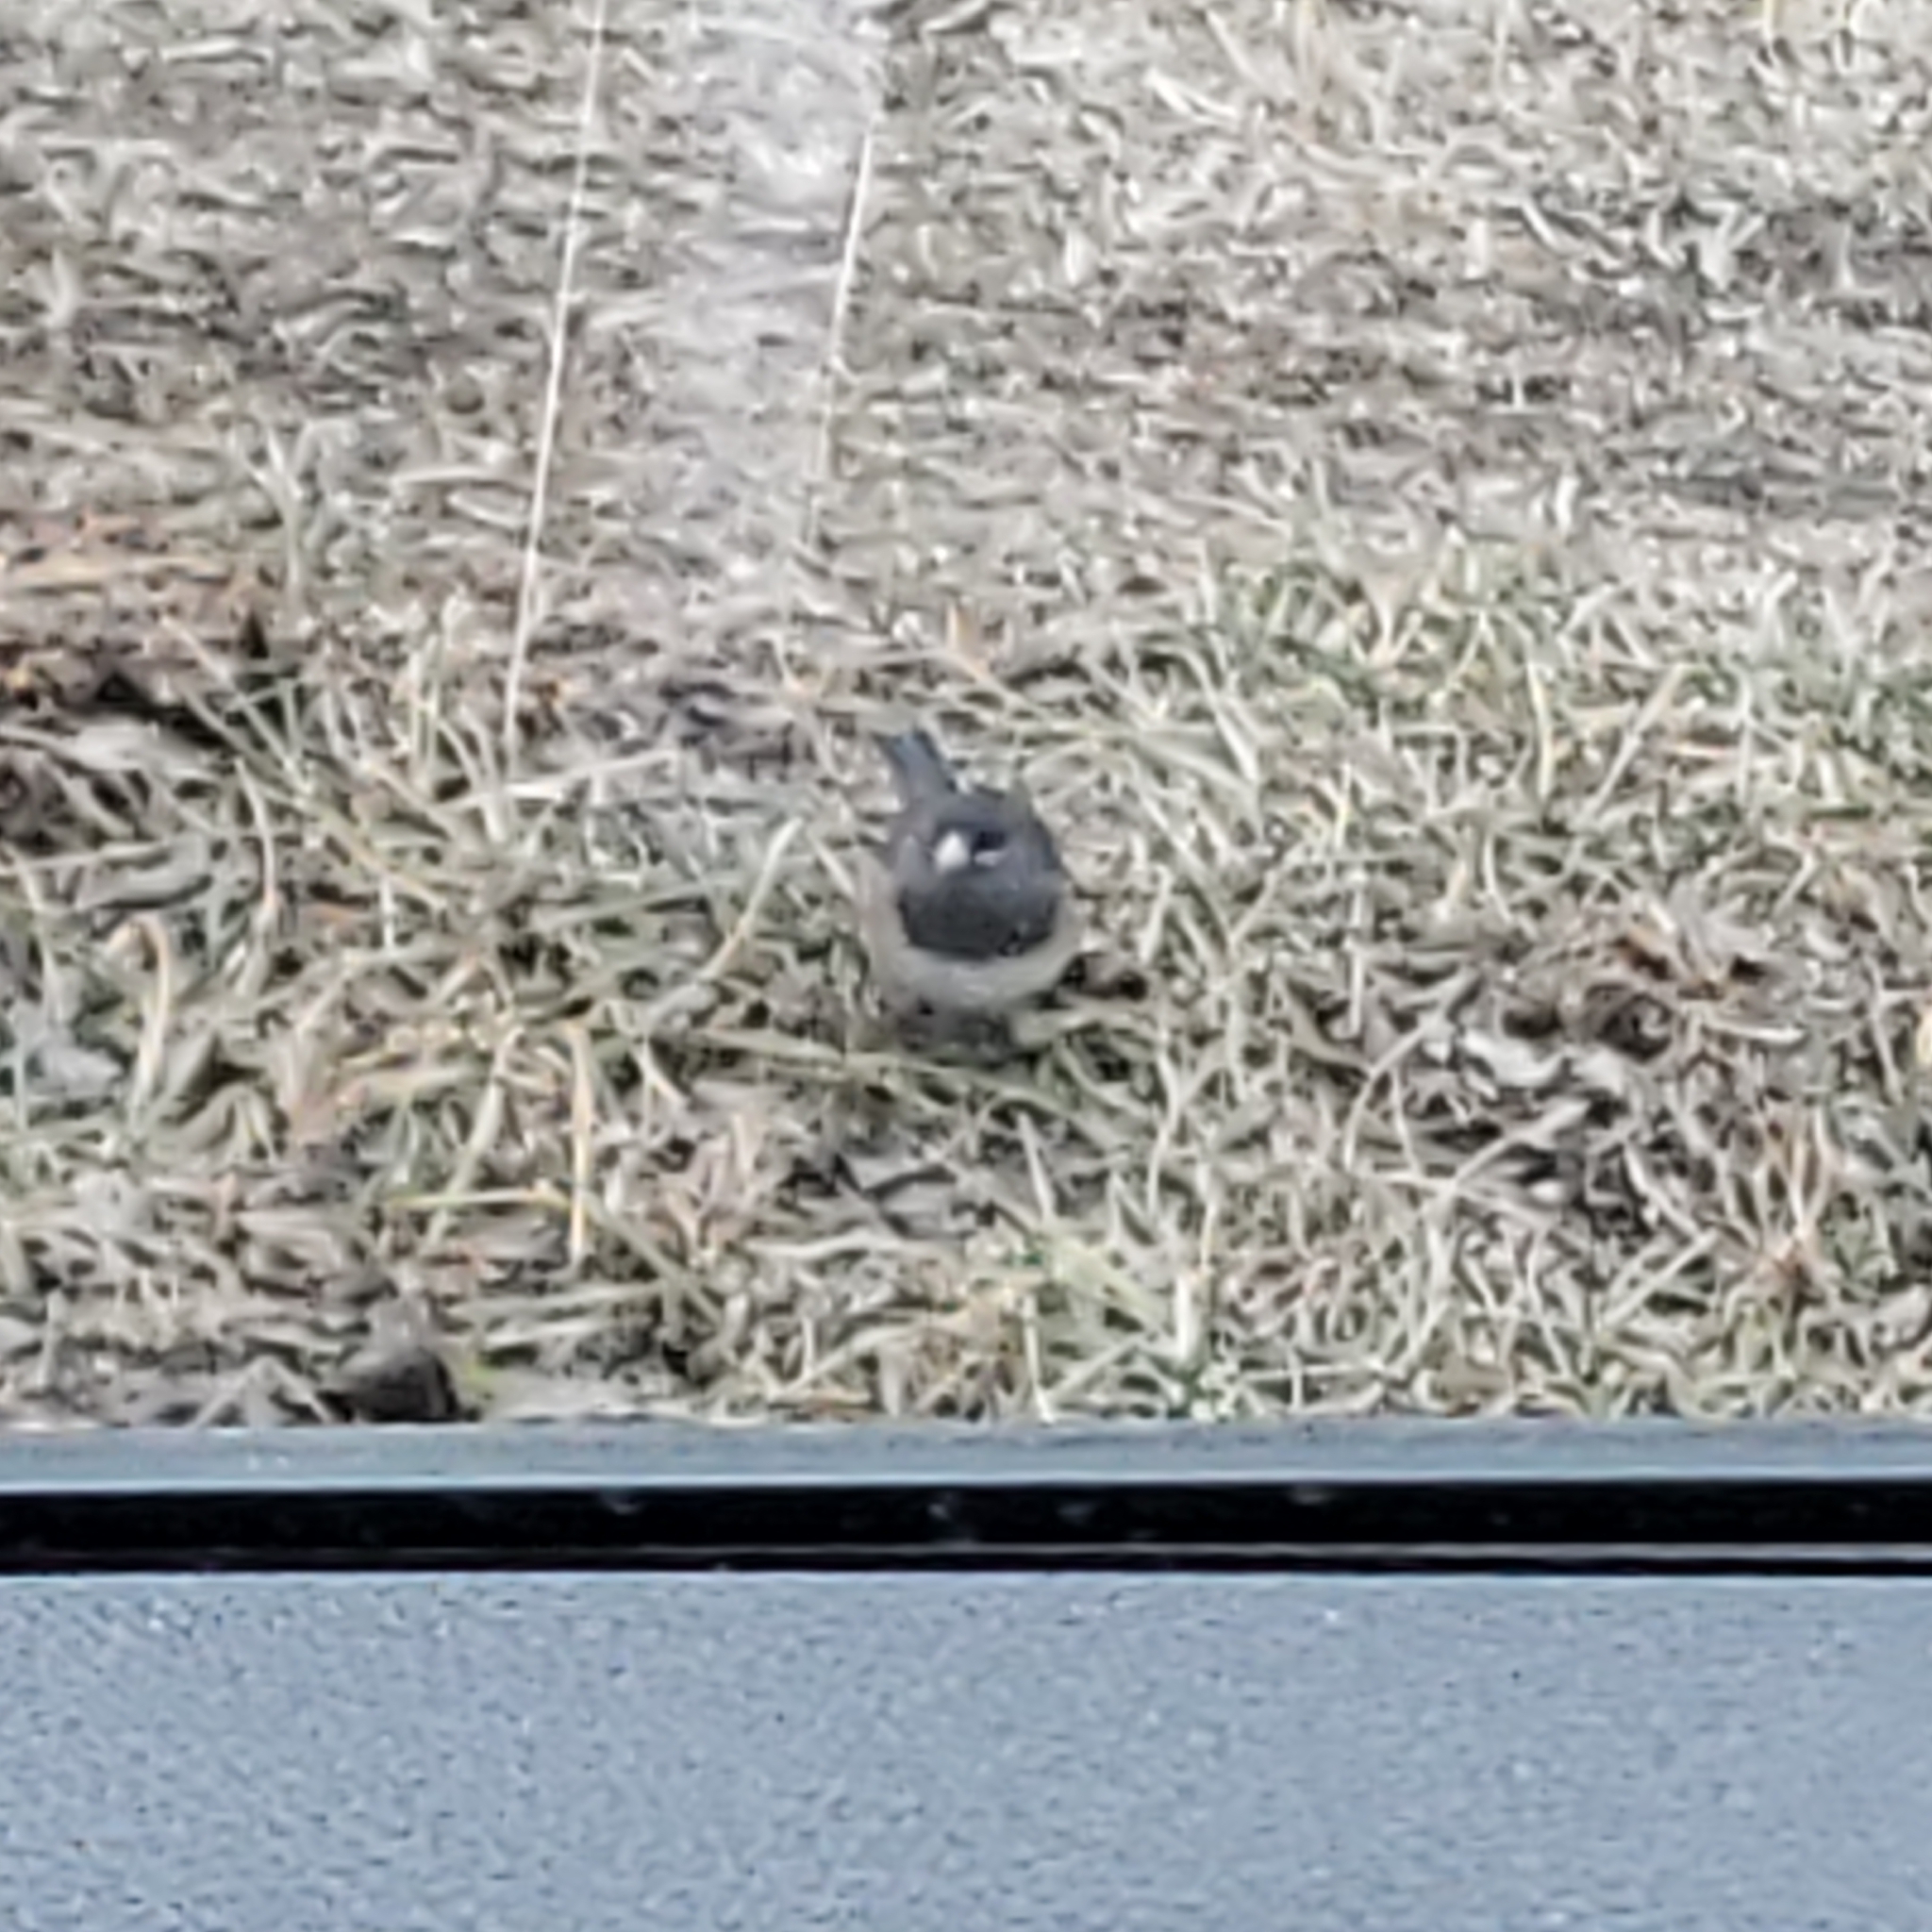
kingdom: Animalia
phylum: Chordata
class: Aves
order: Passeriformes
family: Passerellidae
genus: Junco
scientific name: Junco hyemalis
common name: Dark-eyed junco
